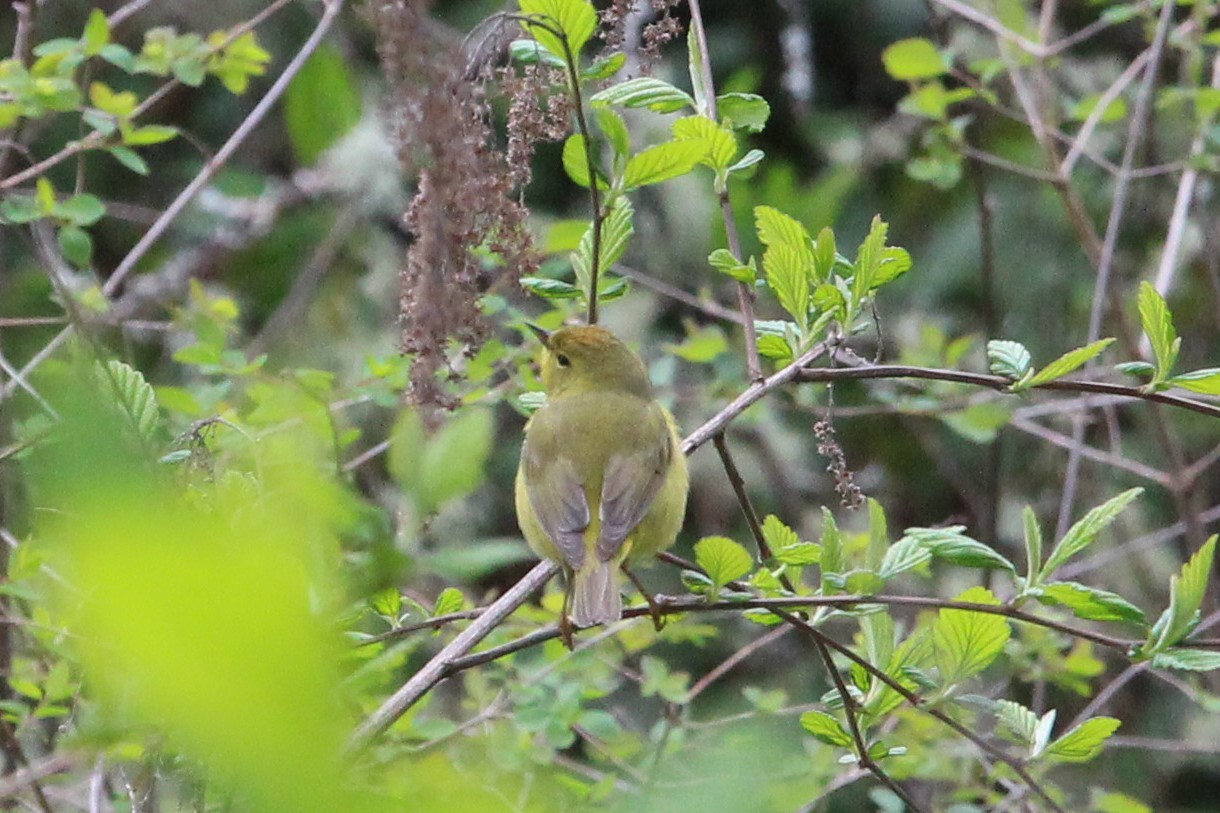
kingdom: Animalia
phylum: Chordata
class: Aves
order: Passeriformes
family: Parulidae
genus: Leiothlypis
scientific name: Leiothlypis celata
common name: Orange-crowned warbler
